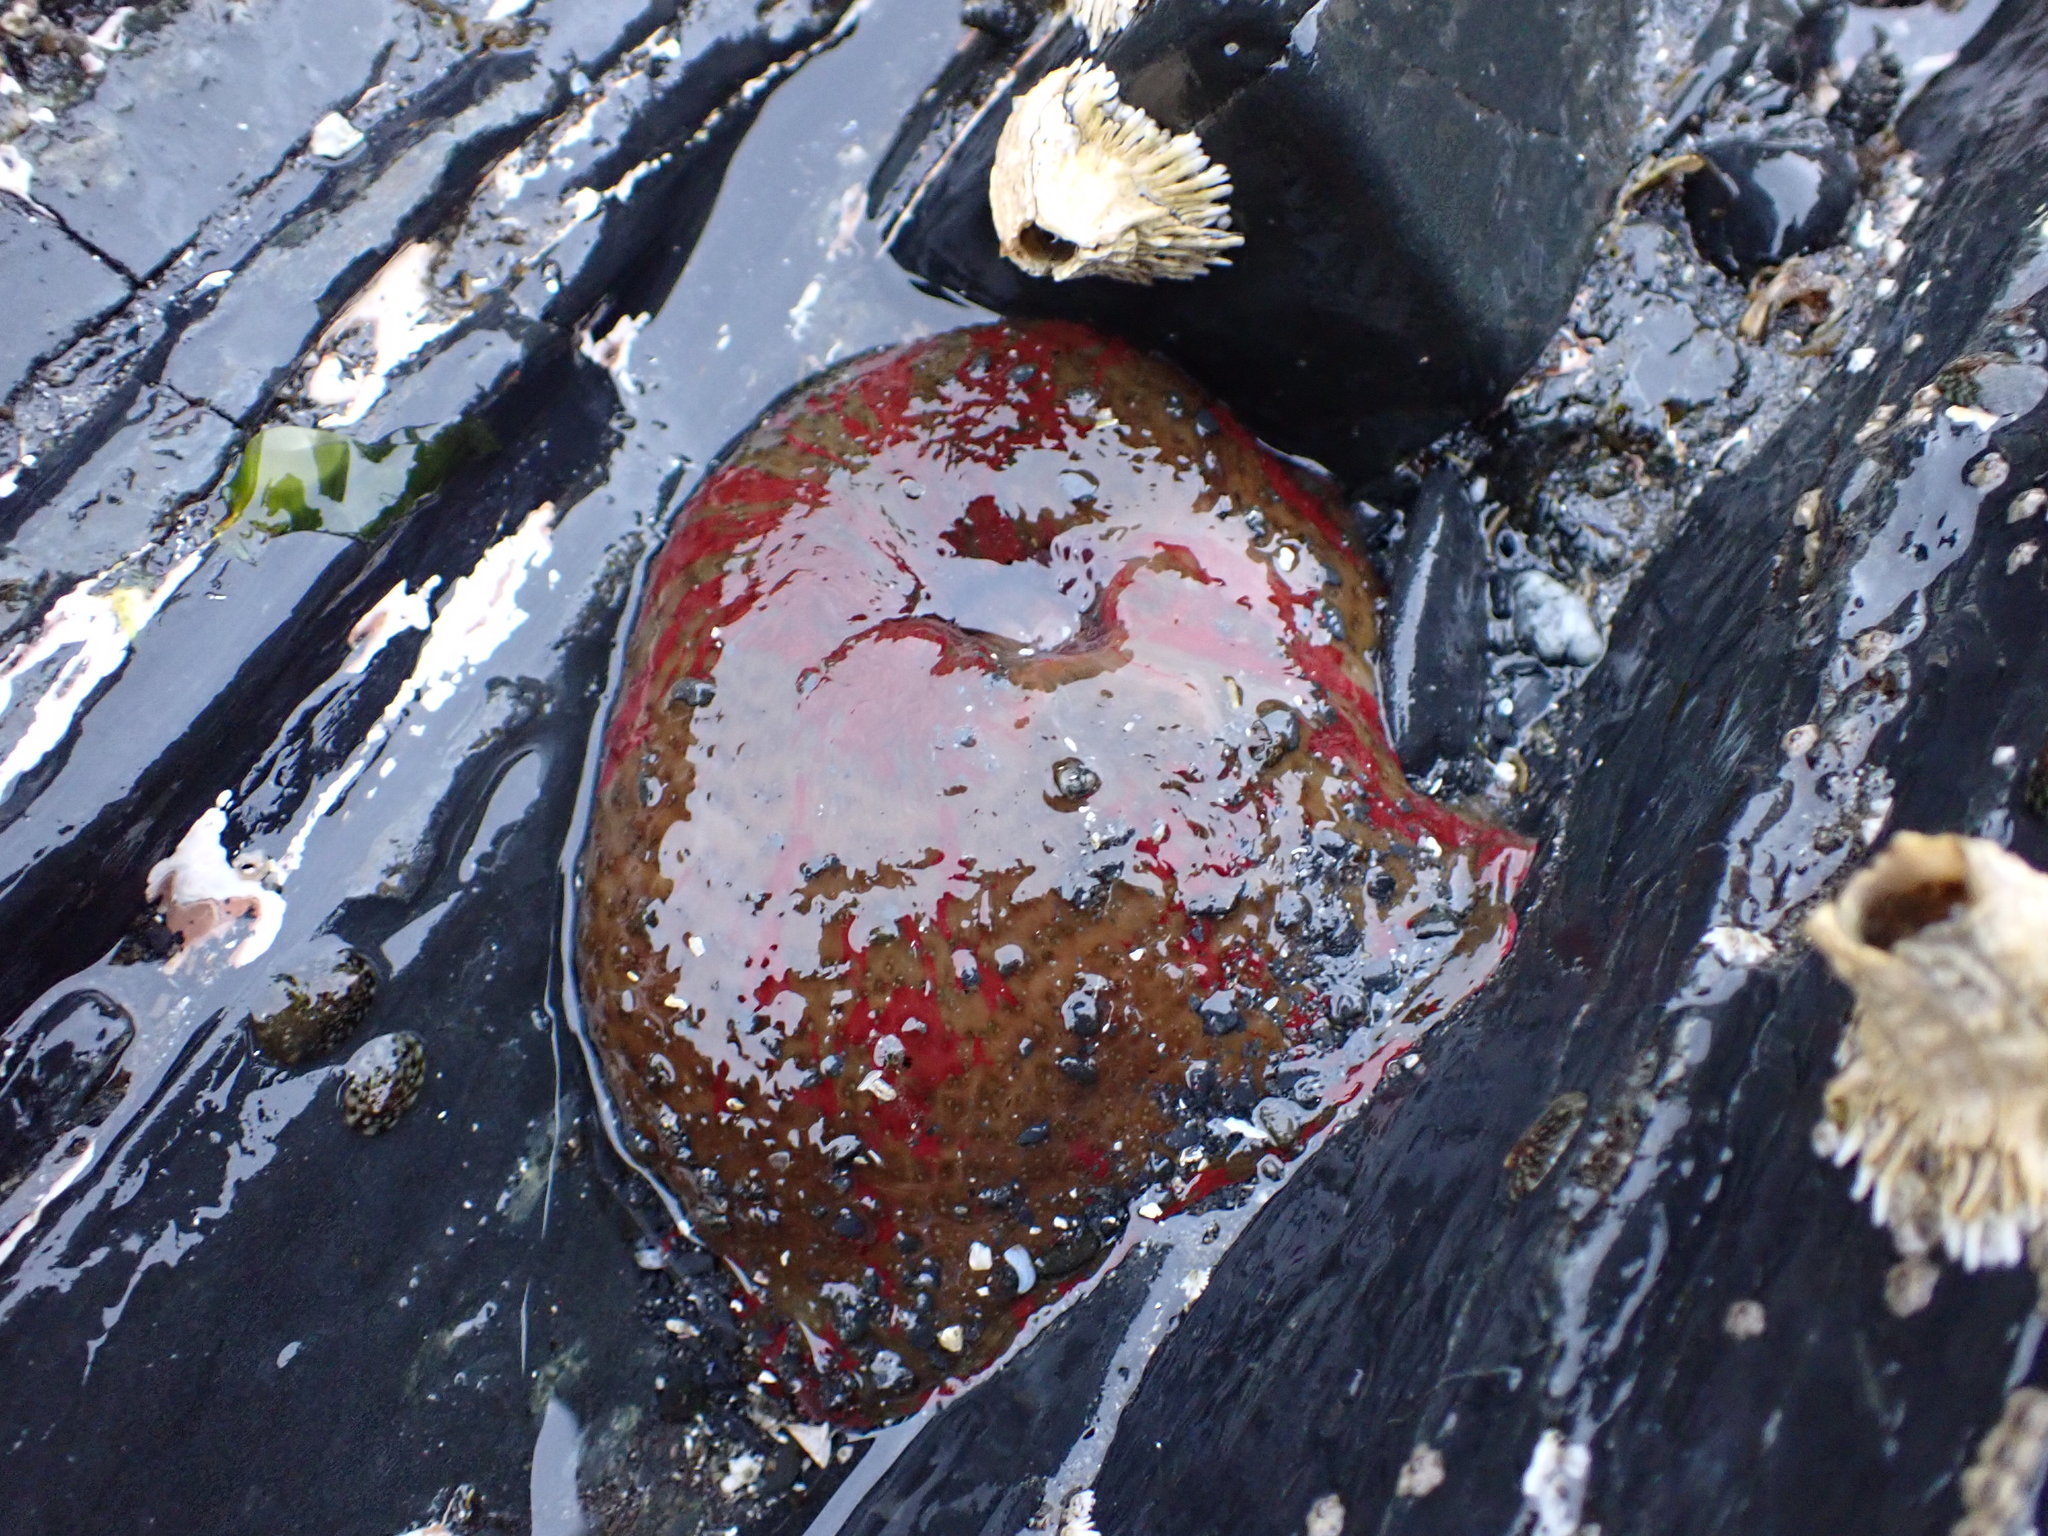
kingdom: Animalia
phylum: Cnidaria
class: Anthozoa
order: Actiniaria
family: Actiniidae
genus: Urticina
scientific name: Urticina grebelnyi
